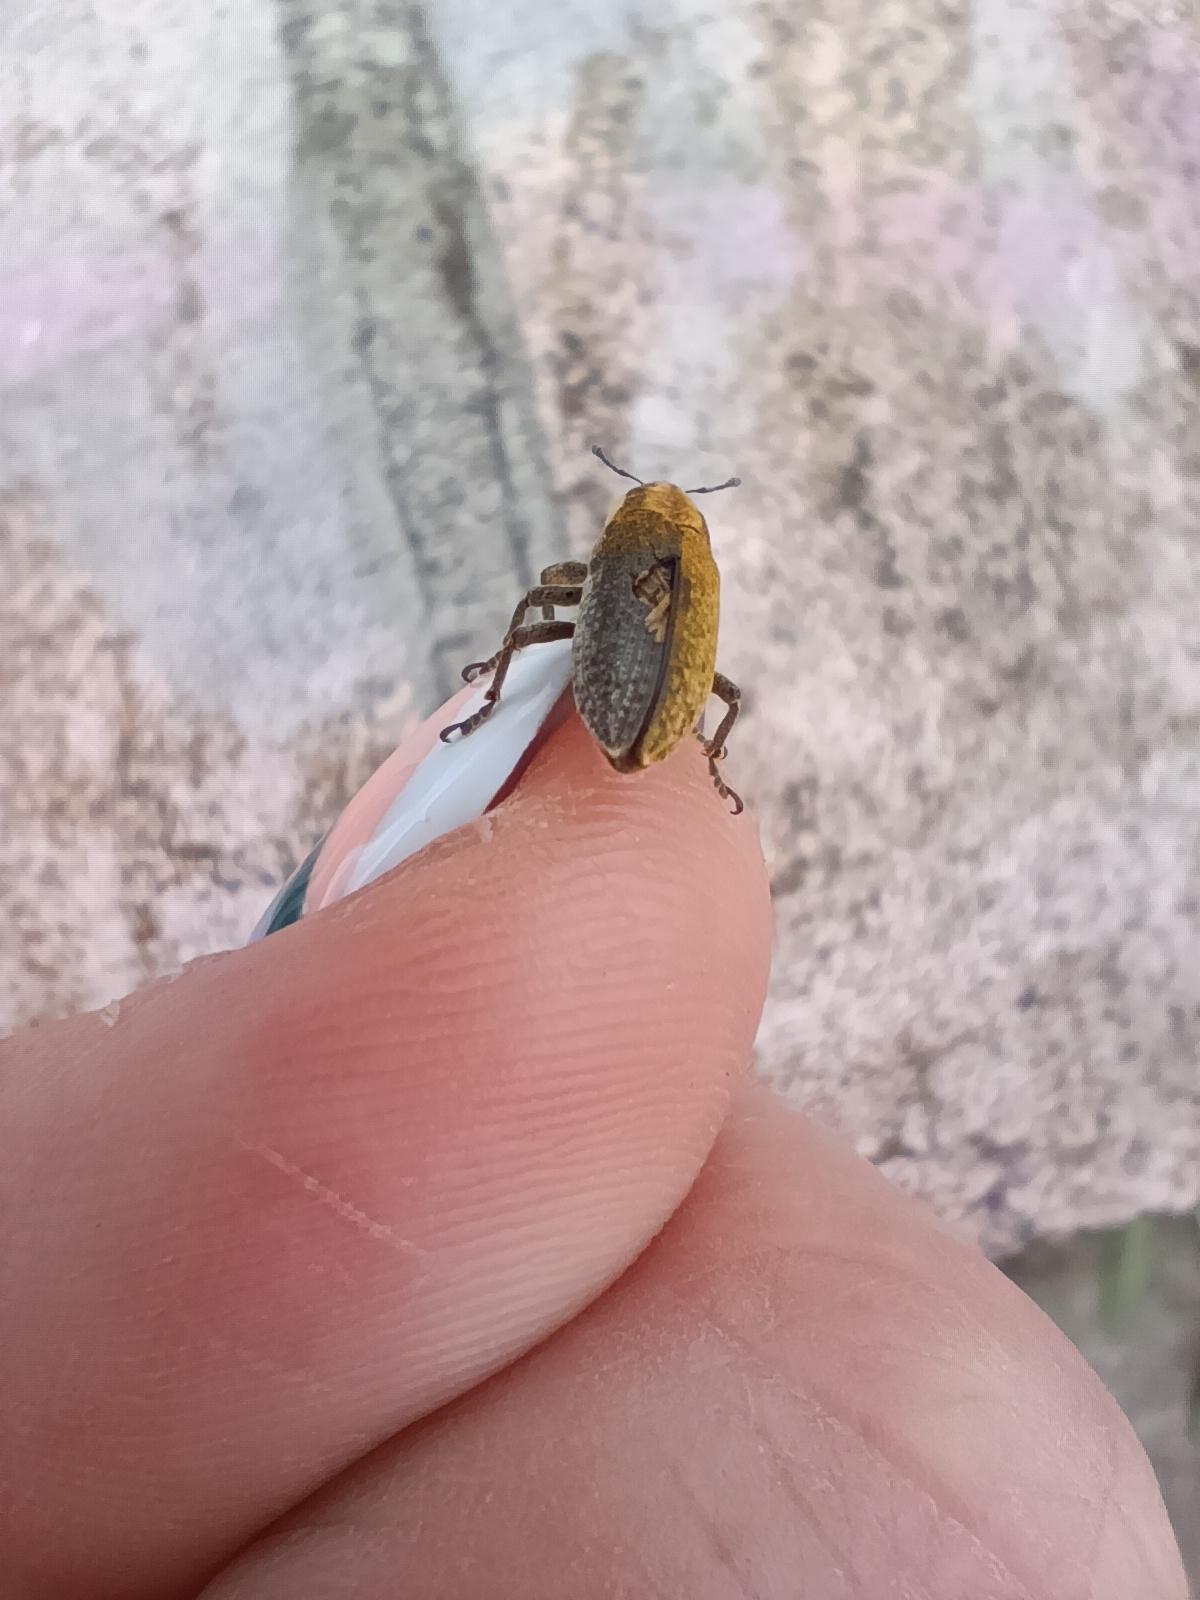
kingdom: Animalia
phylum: Arthropoda
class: Insecta
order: Coleoptera
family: Curculionidae
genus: Lixus
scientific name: Lixus myagri
